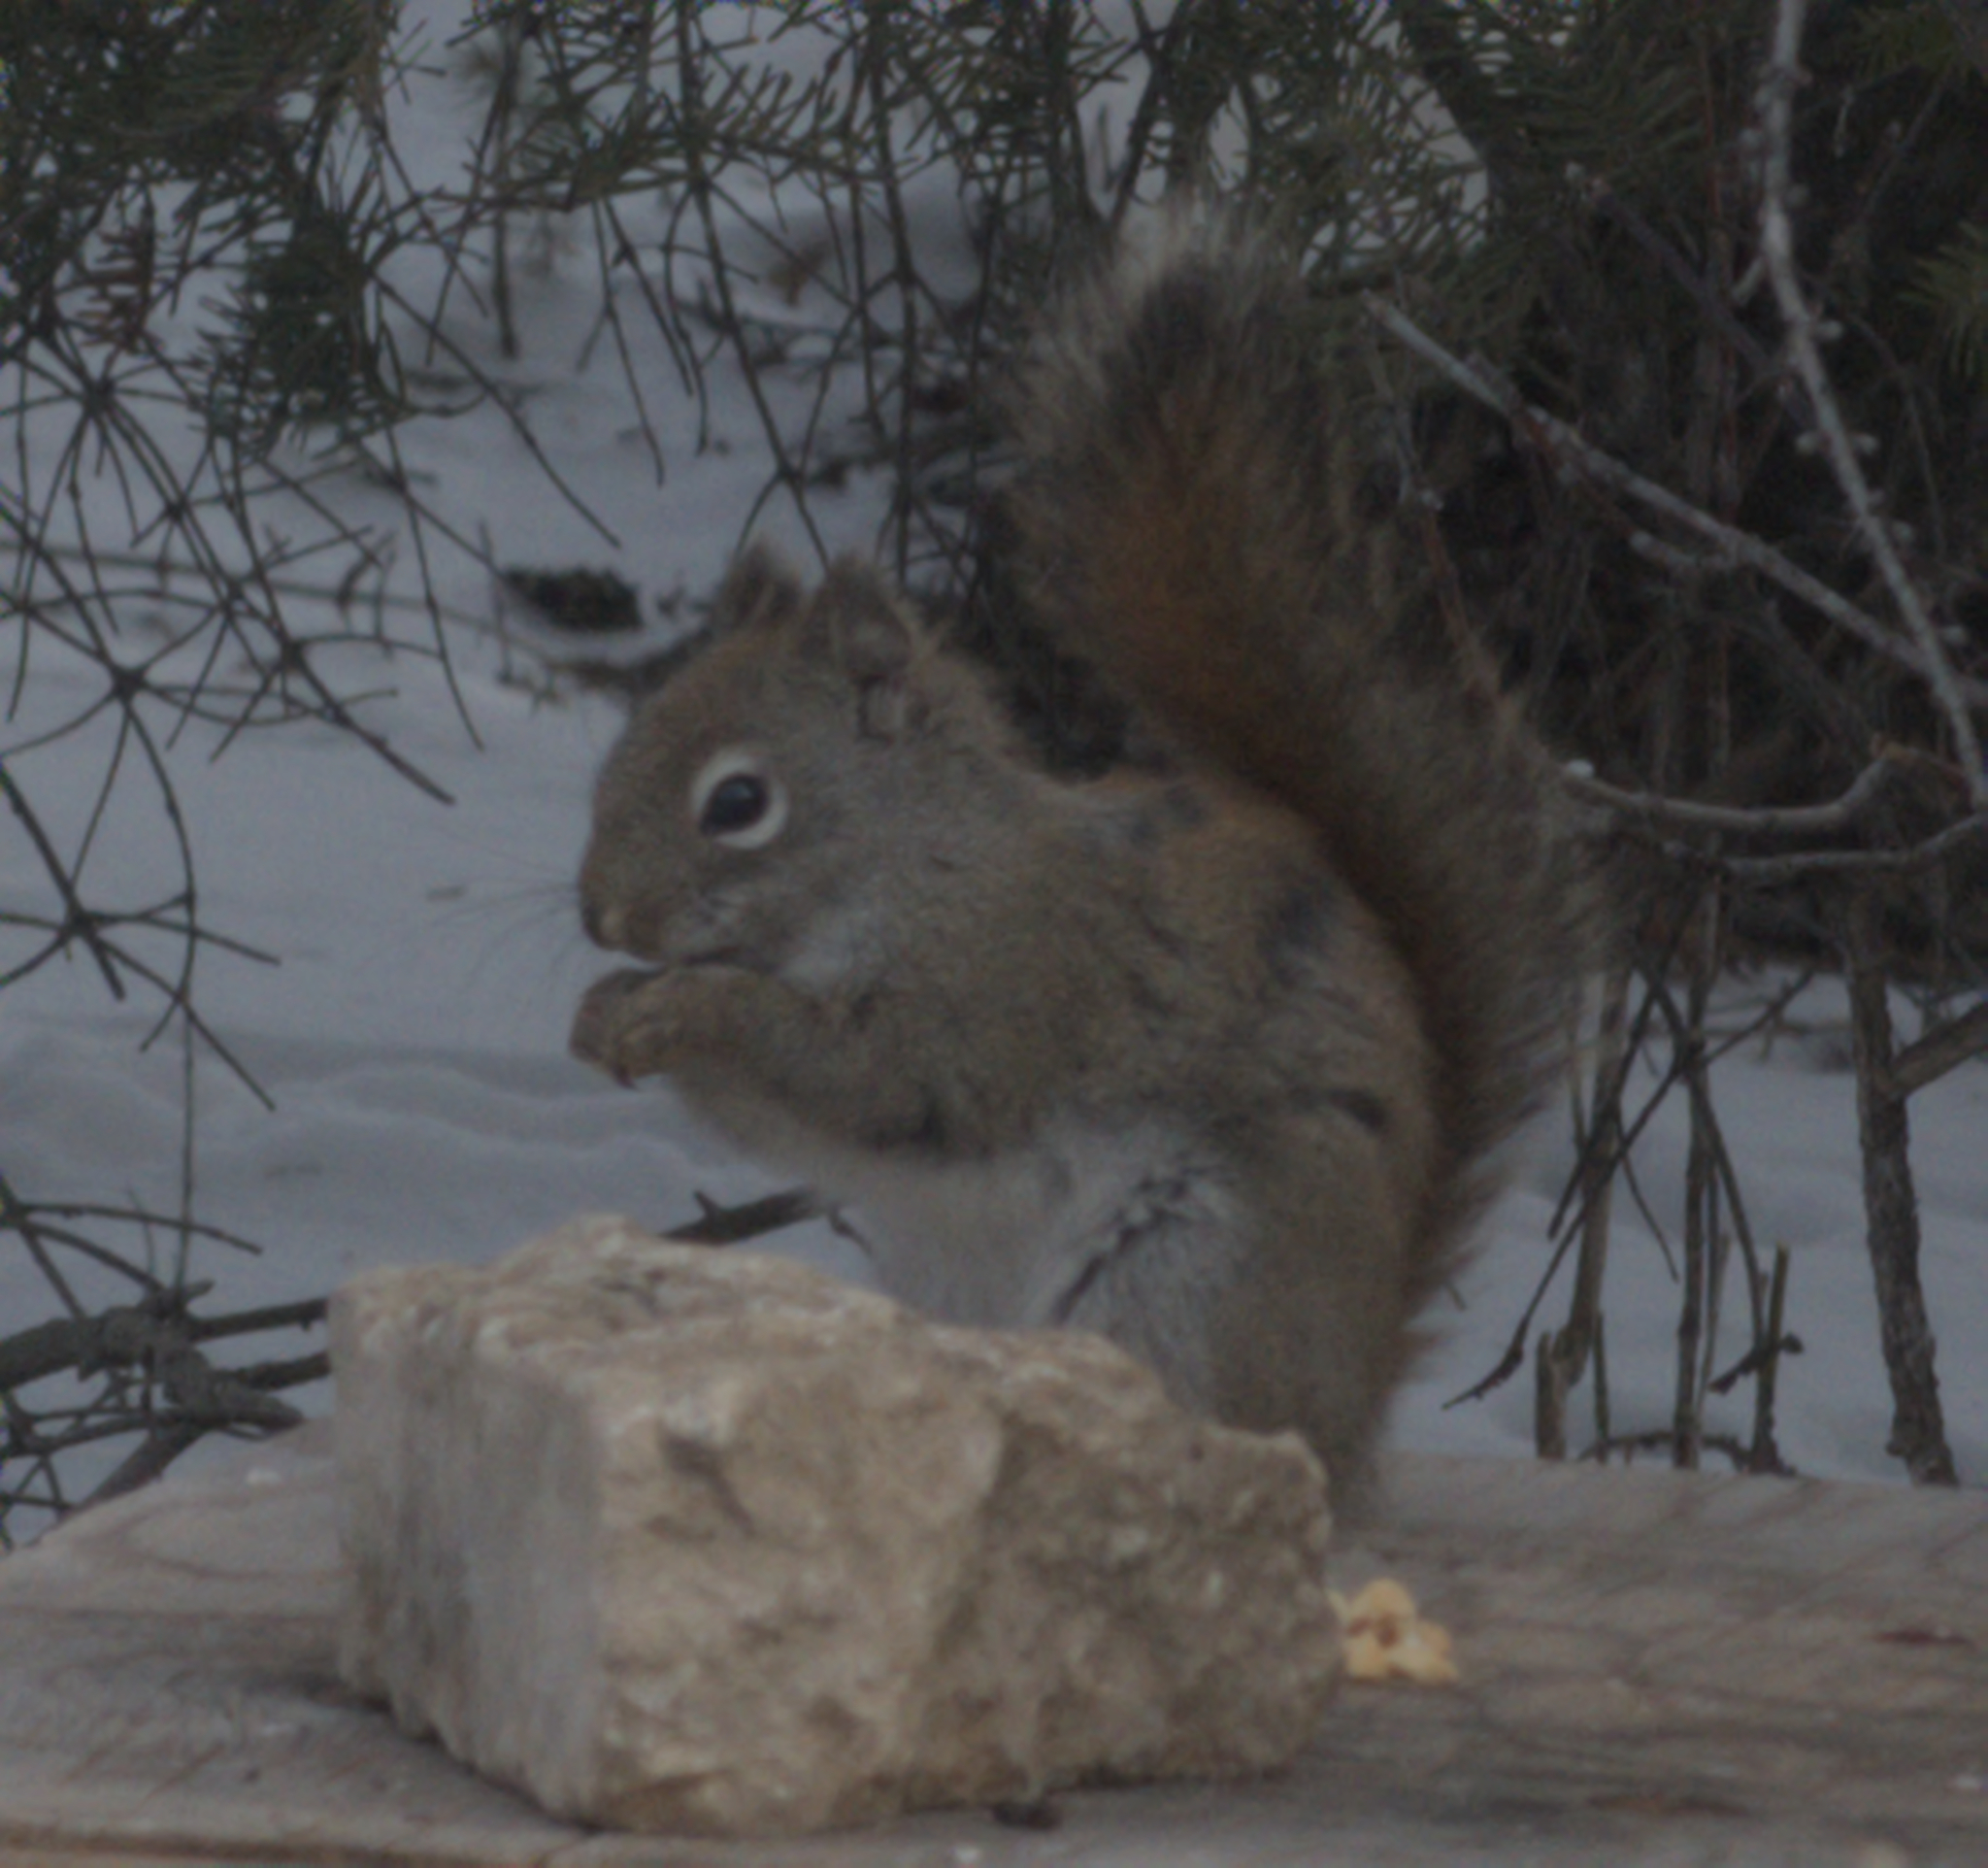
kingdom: Animalia
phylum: Chordata
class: Mammalia
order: Rodentia
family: Sciuridae
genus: Tamiasciurus
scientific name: Tamiasciurus hudsonicus
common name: Red squirrel
